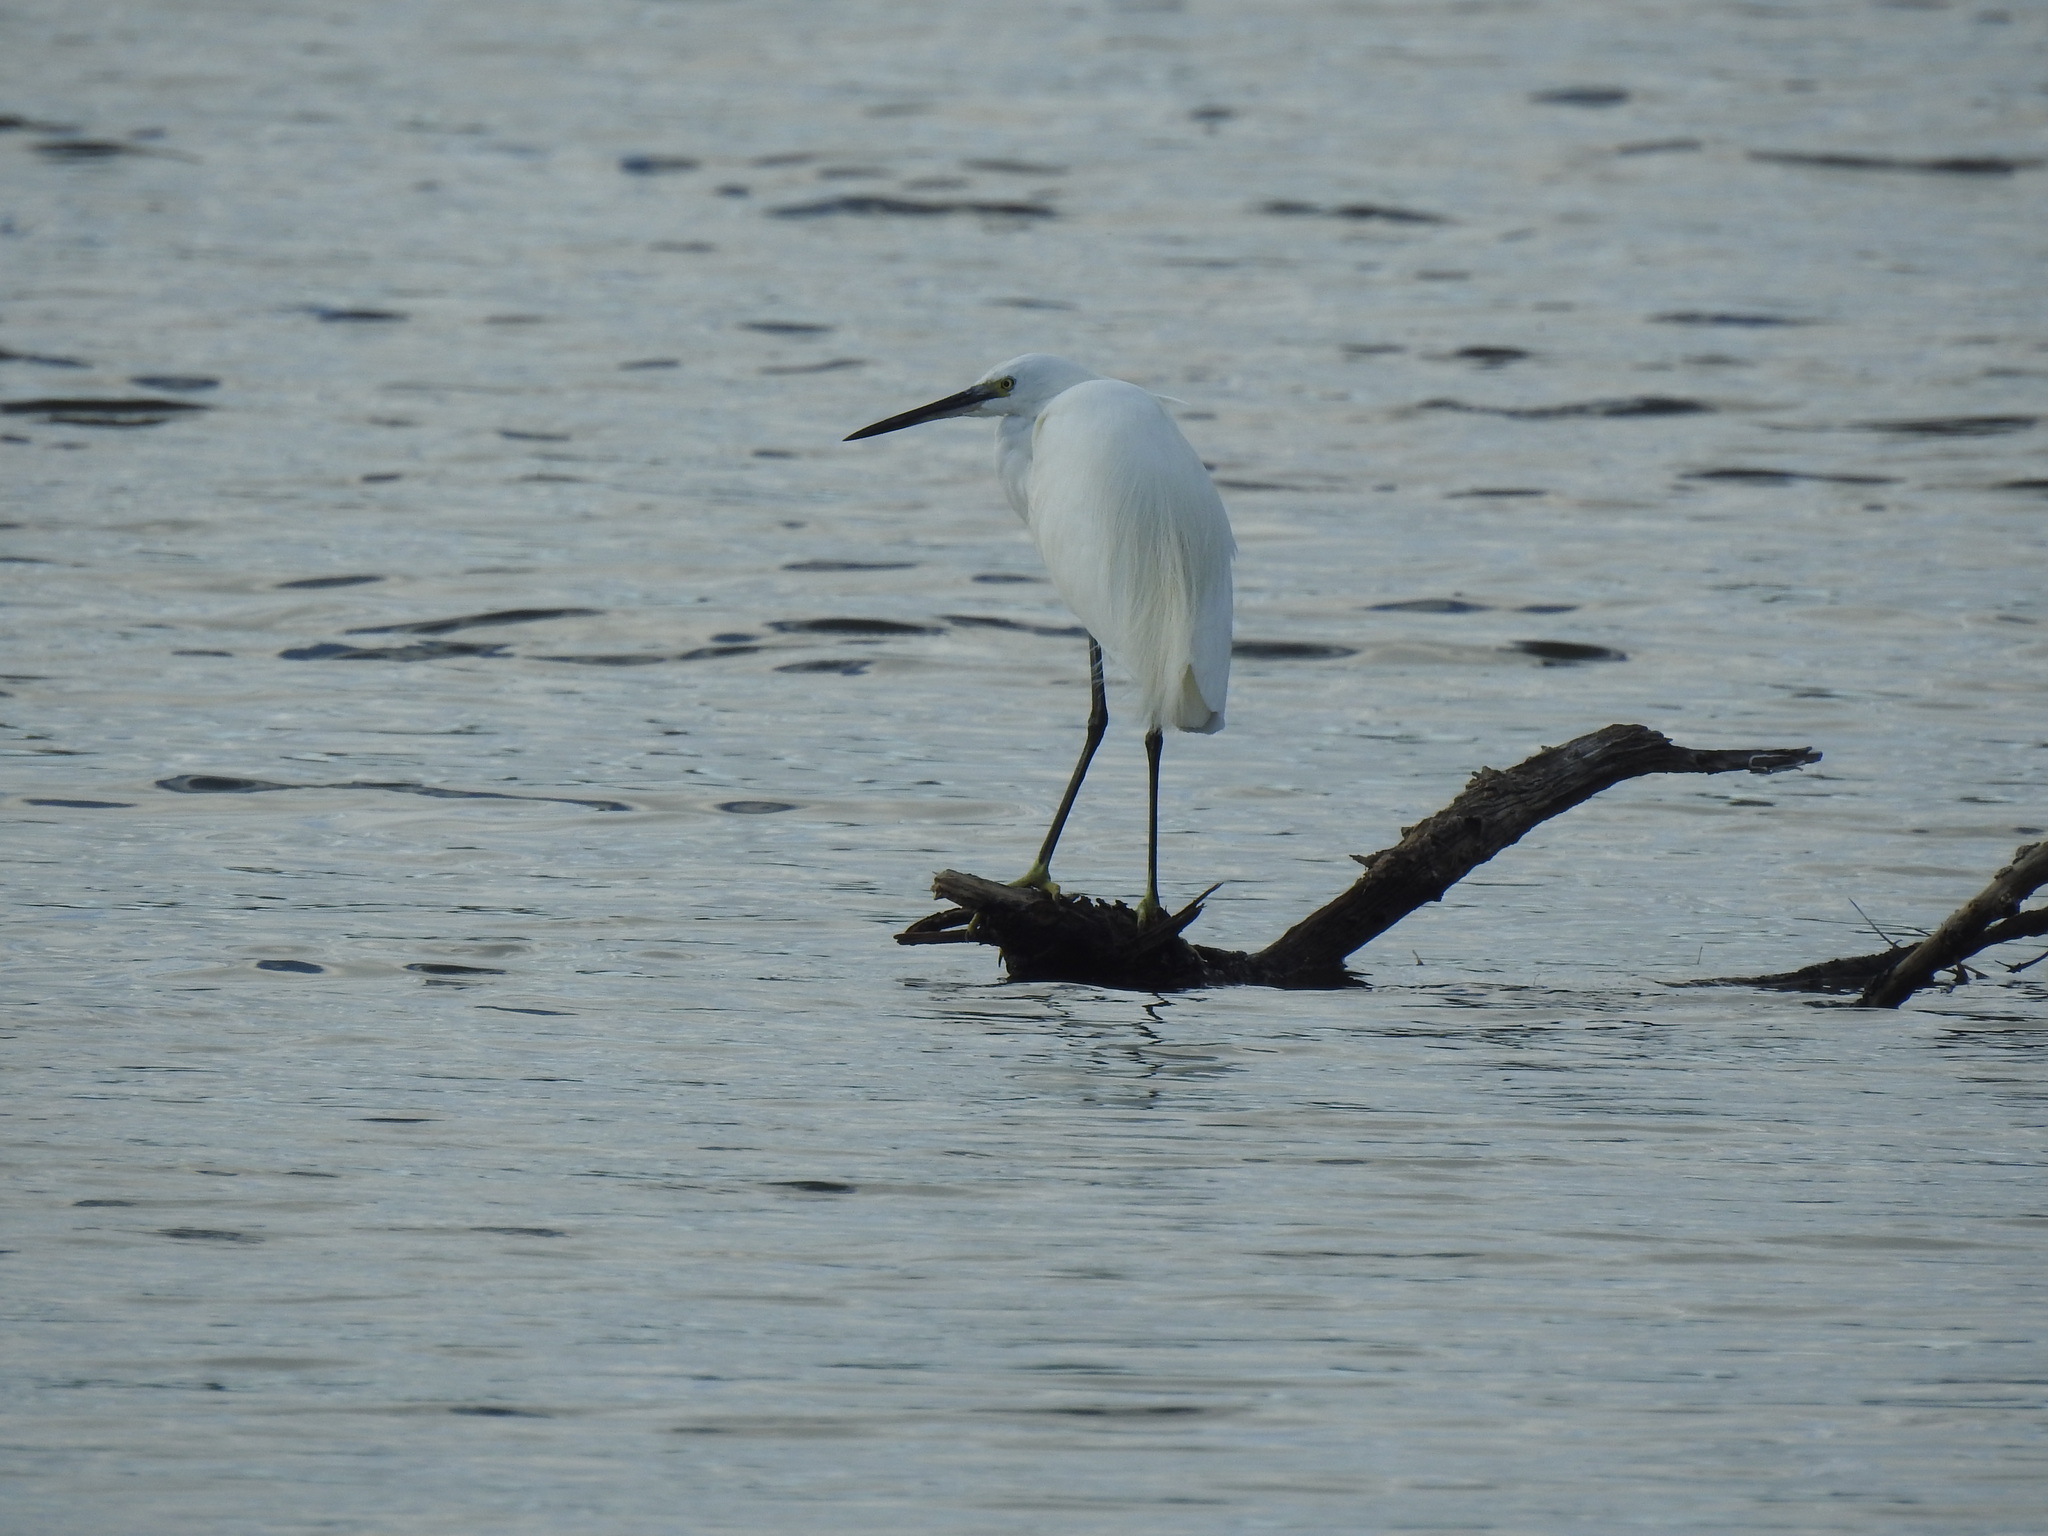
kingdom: Animalia
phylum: Chordata
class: Aves
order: Pelecaniformes
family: Ardeidae
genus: Egretta
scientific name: Egretta garzetta
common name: Little egret
